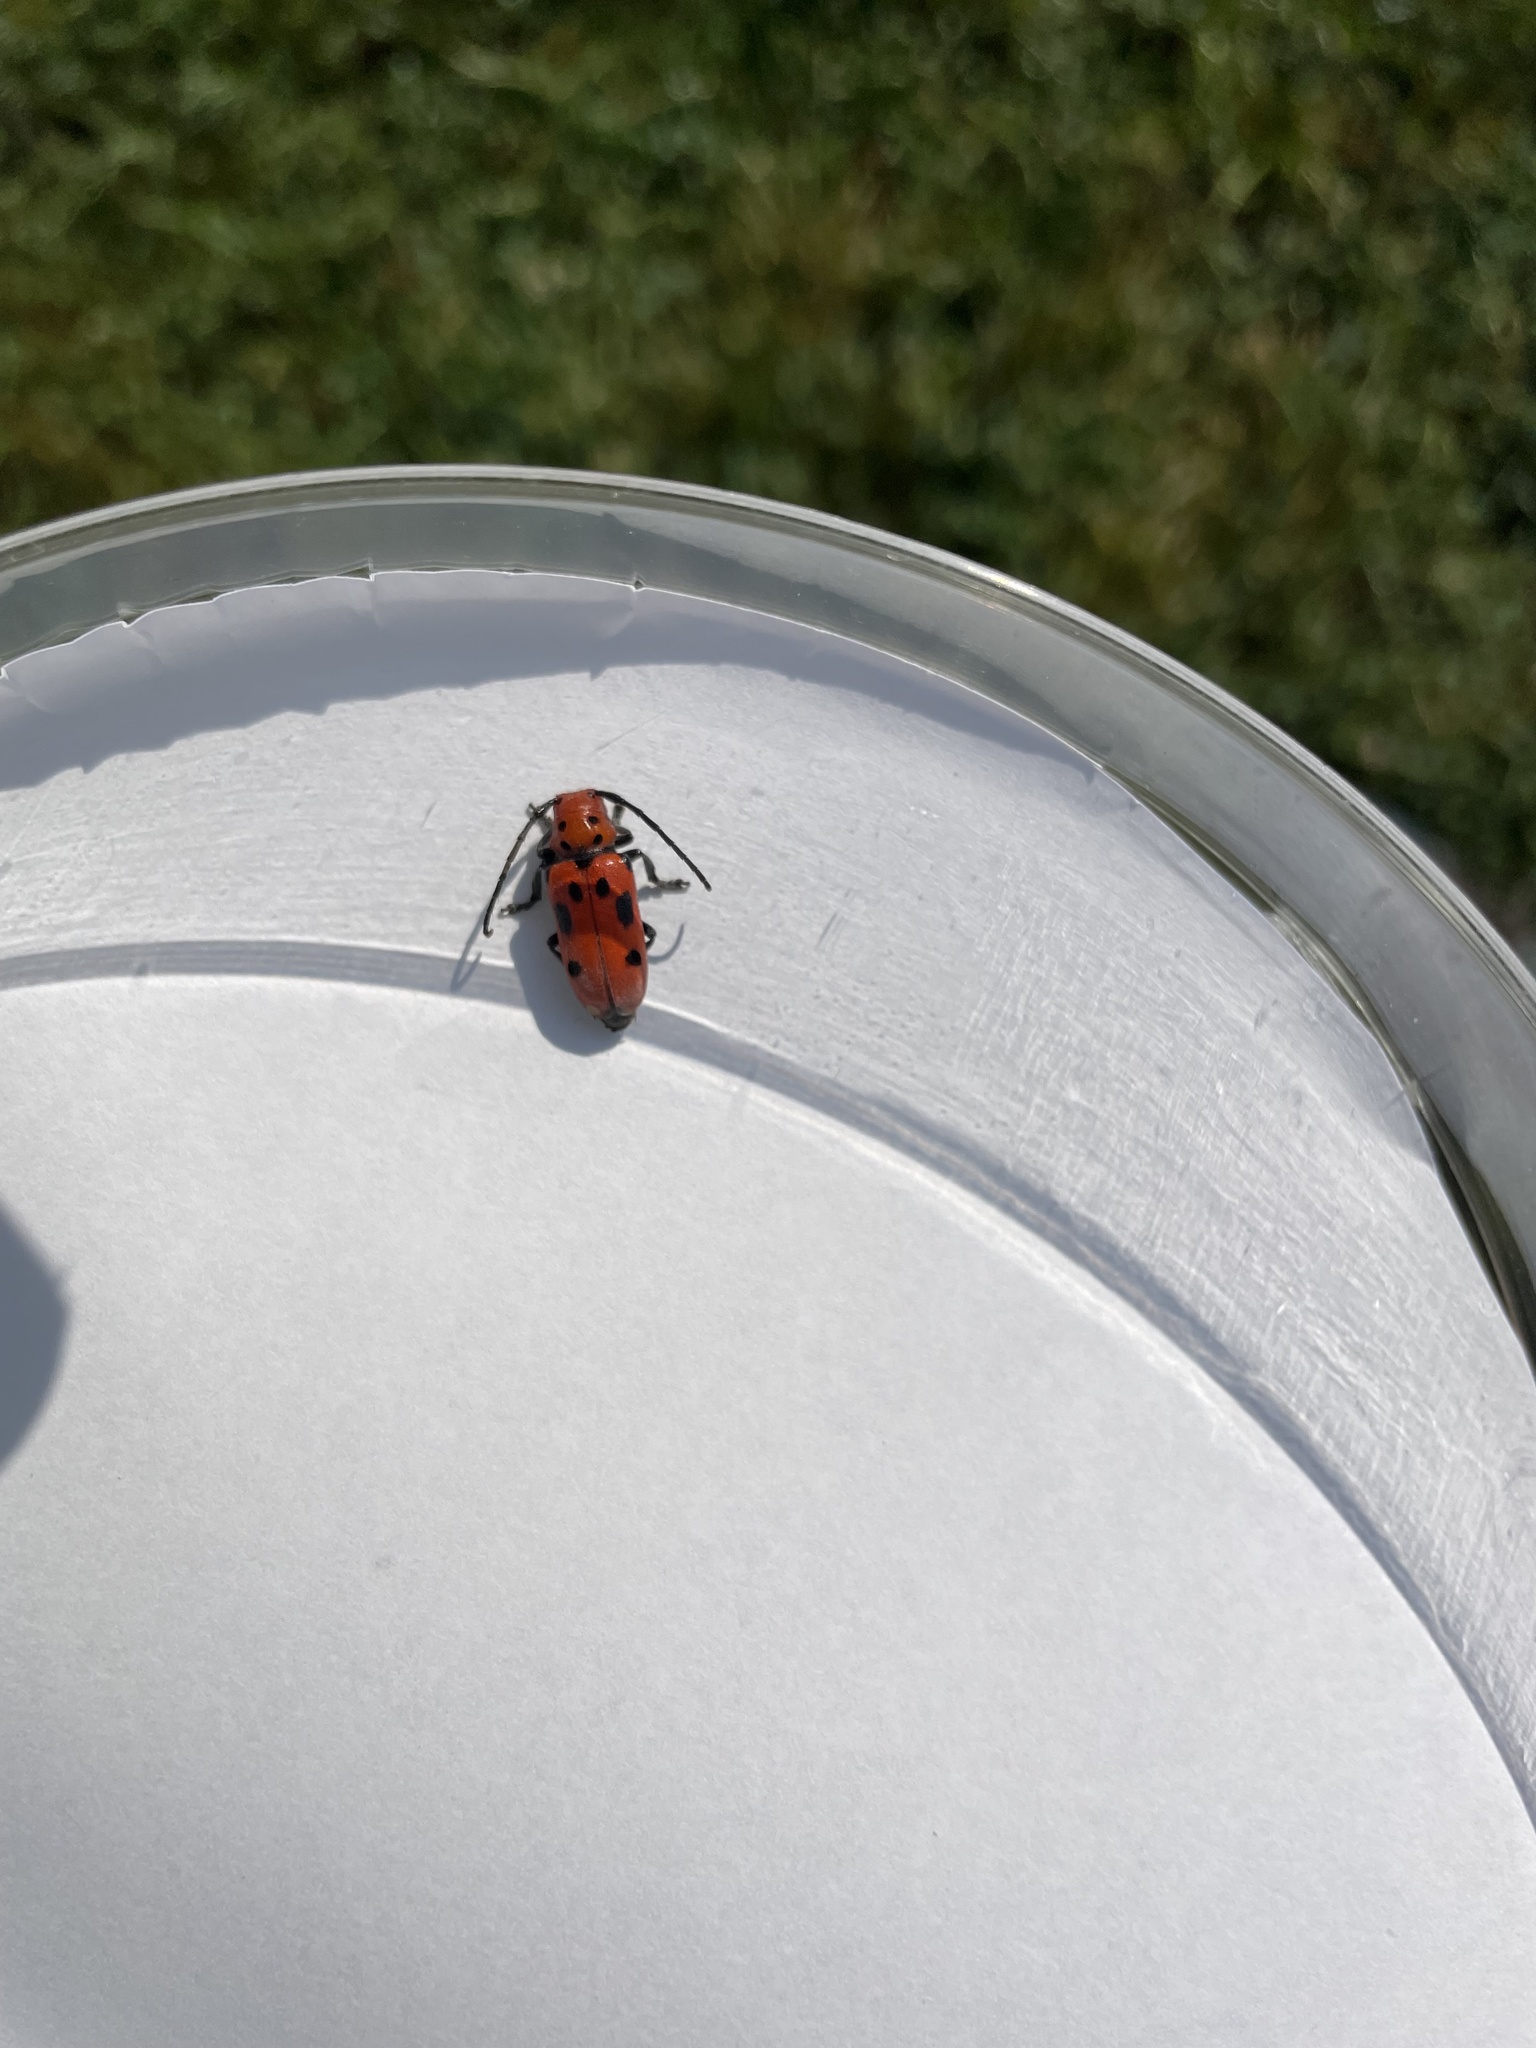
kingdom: Animalia
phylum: Arthropoda
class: Insecta
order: Coleoptera
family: Cerambycidae
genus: Tetraopes
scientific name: Tetraopes tetrophthalmus
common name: Red milkweed beetle
